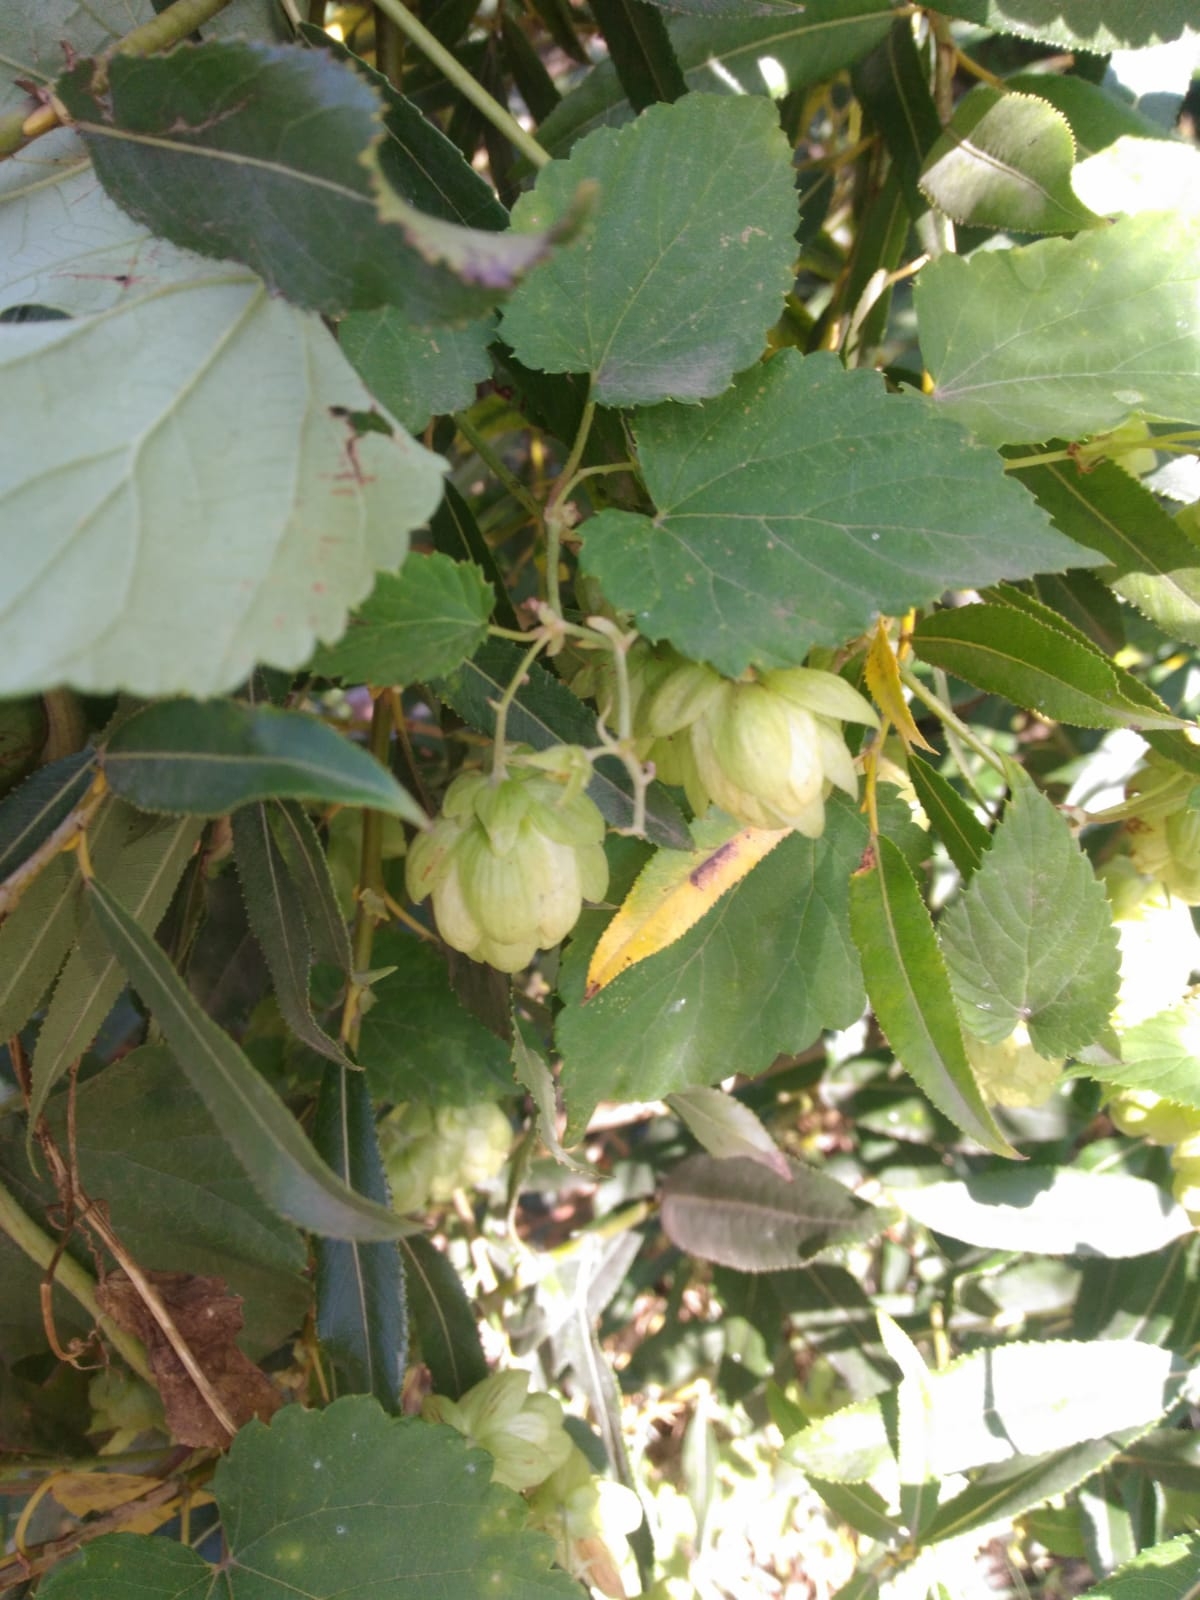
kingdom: Plantae
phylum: Tracheophyta
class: Magnoliopsida
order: Rosales
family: Cannabaceae
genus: Humulus
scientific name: Humulus lupulus
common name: Hop
